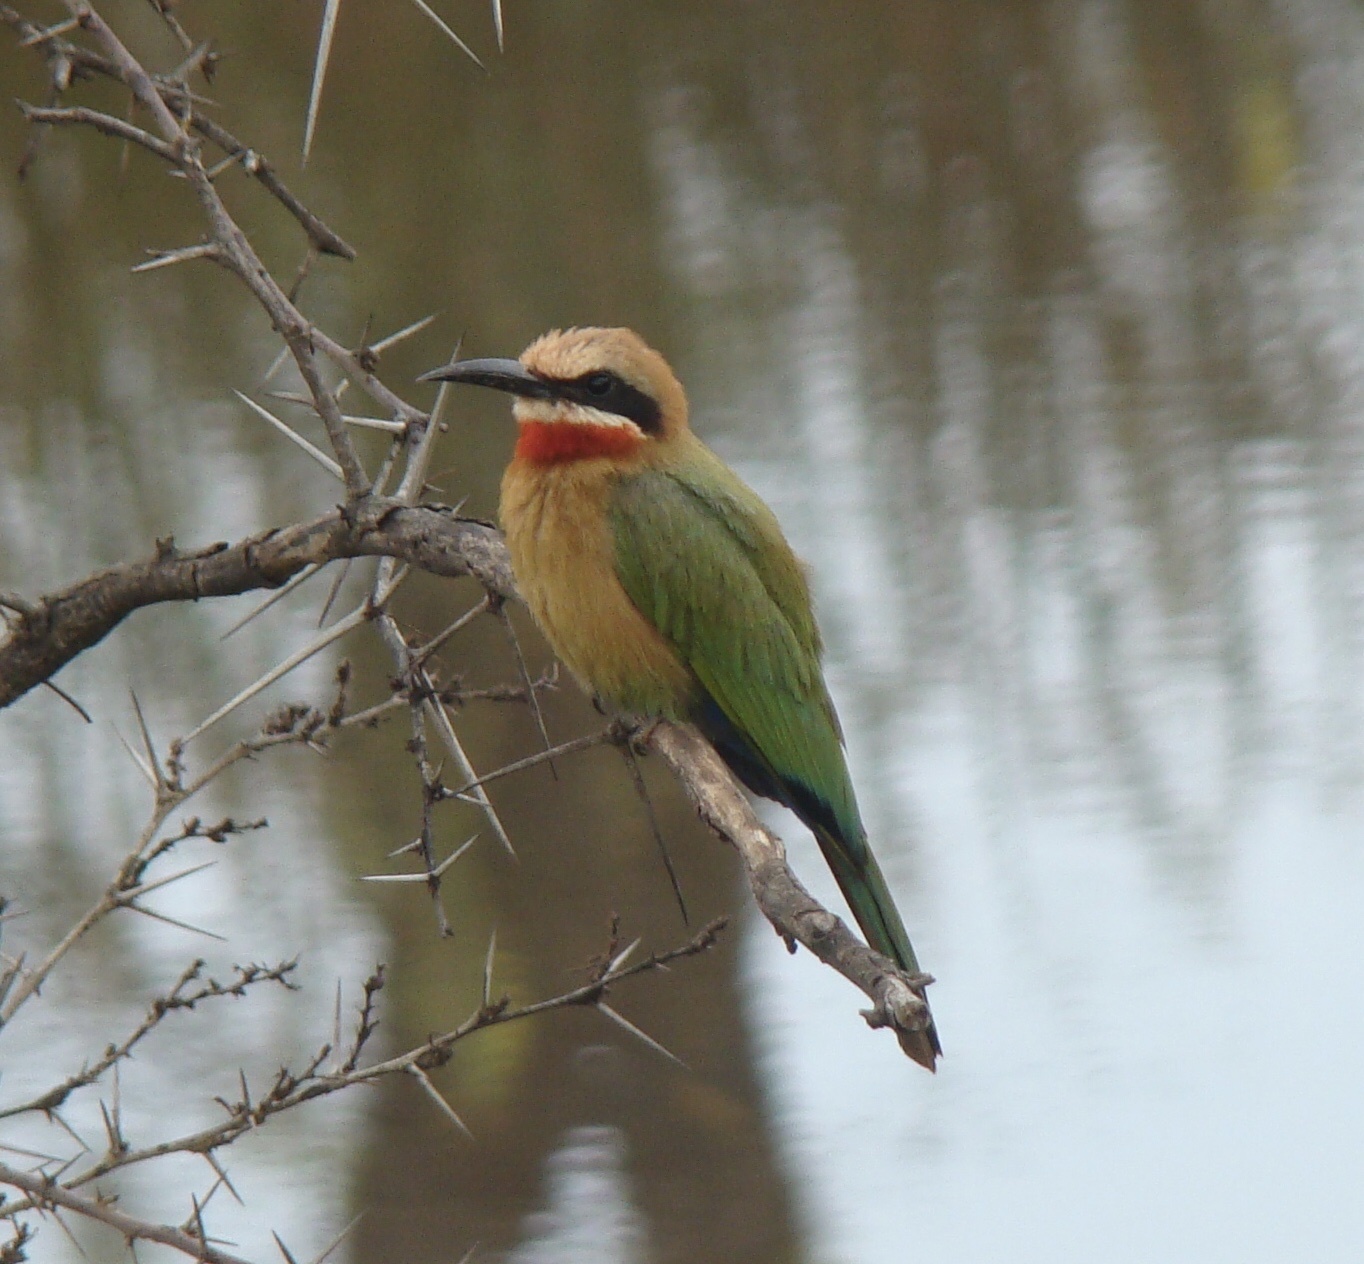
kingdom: Animalia
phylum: Chordata
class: Aves
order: Coraciiformes
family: Meropidae
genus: Merops
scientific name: Merops bullockoides
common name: White-fronted bee-eater
